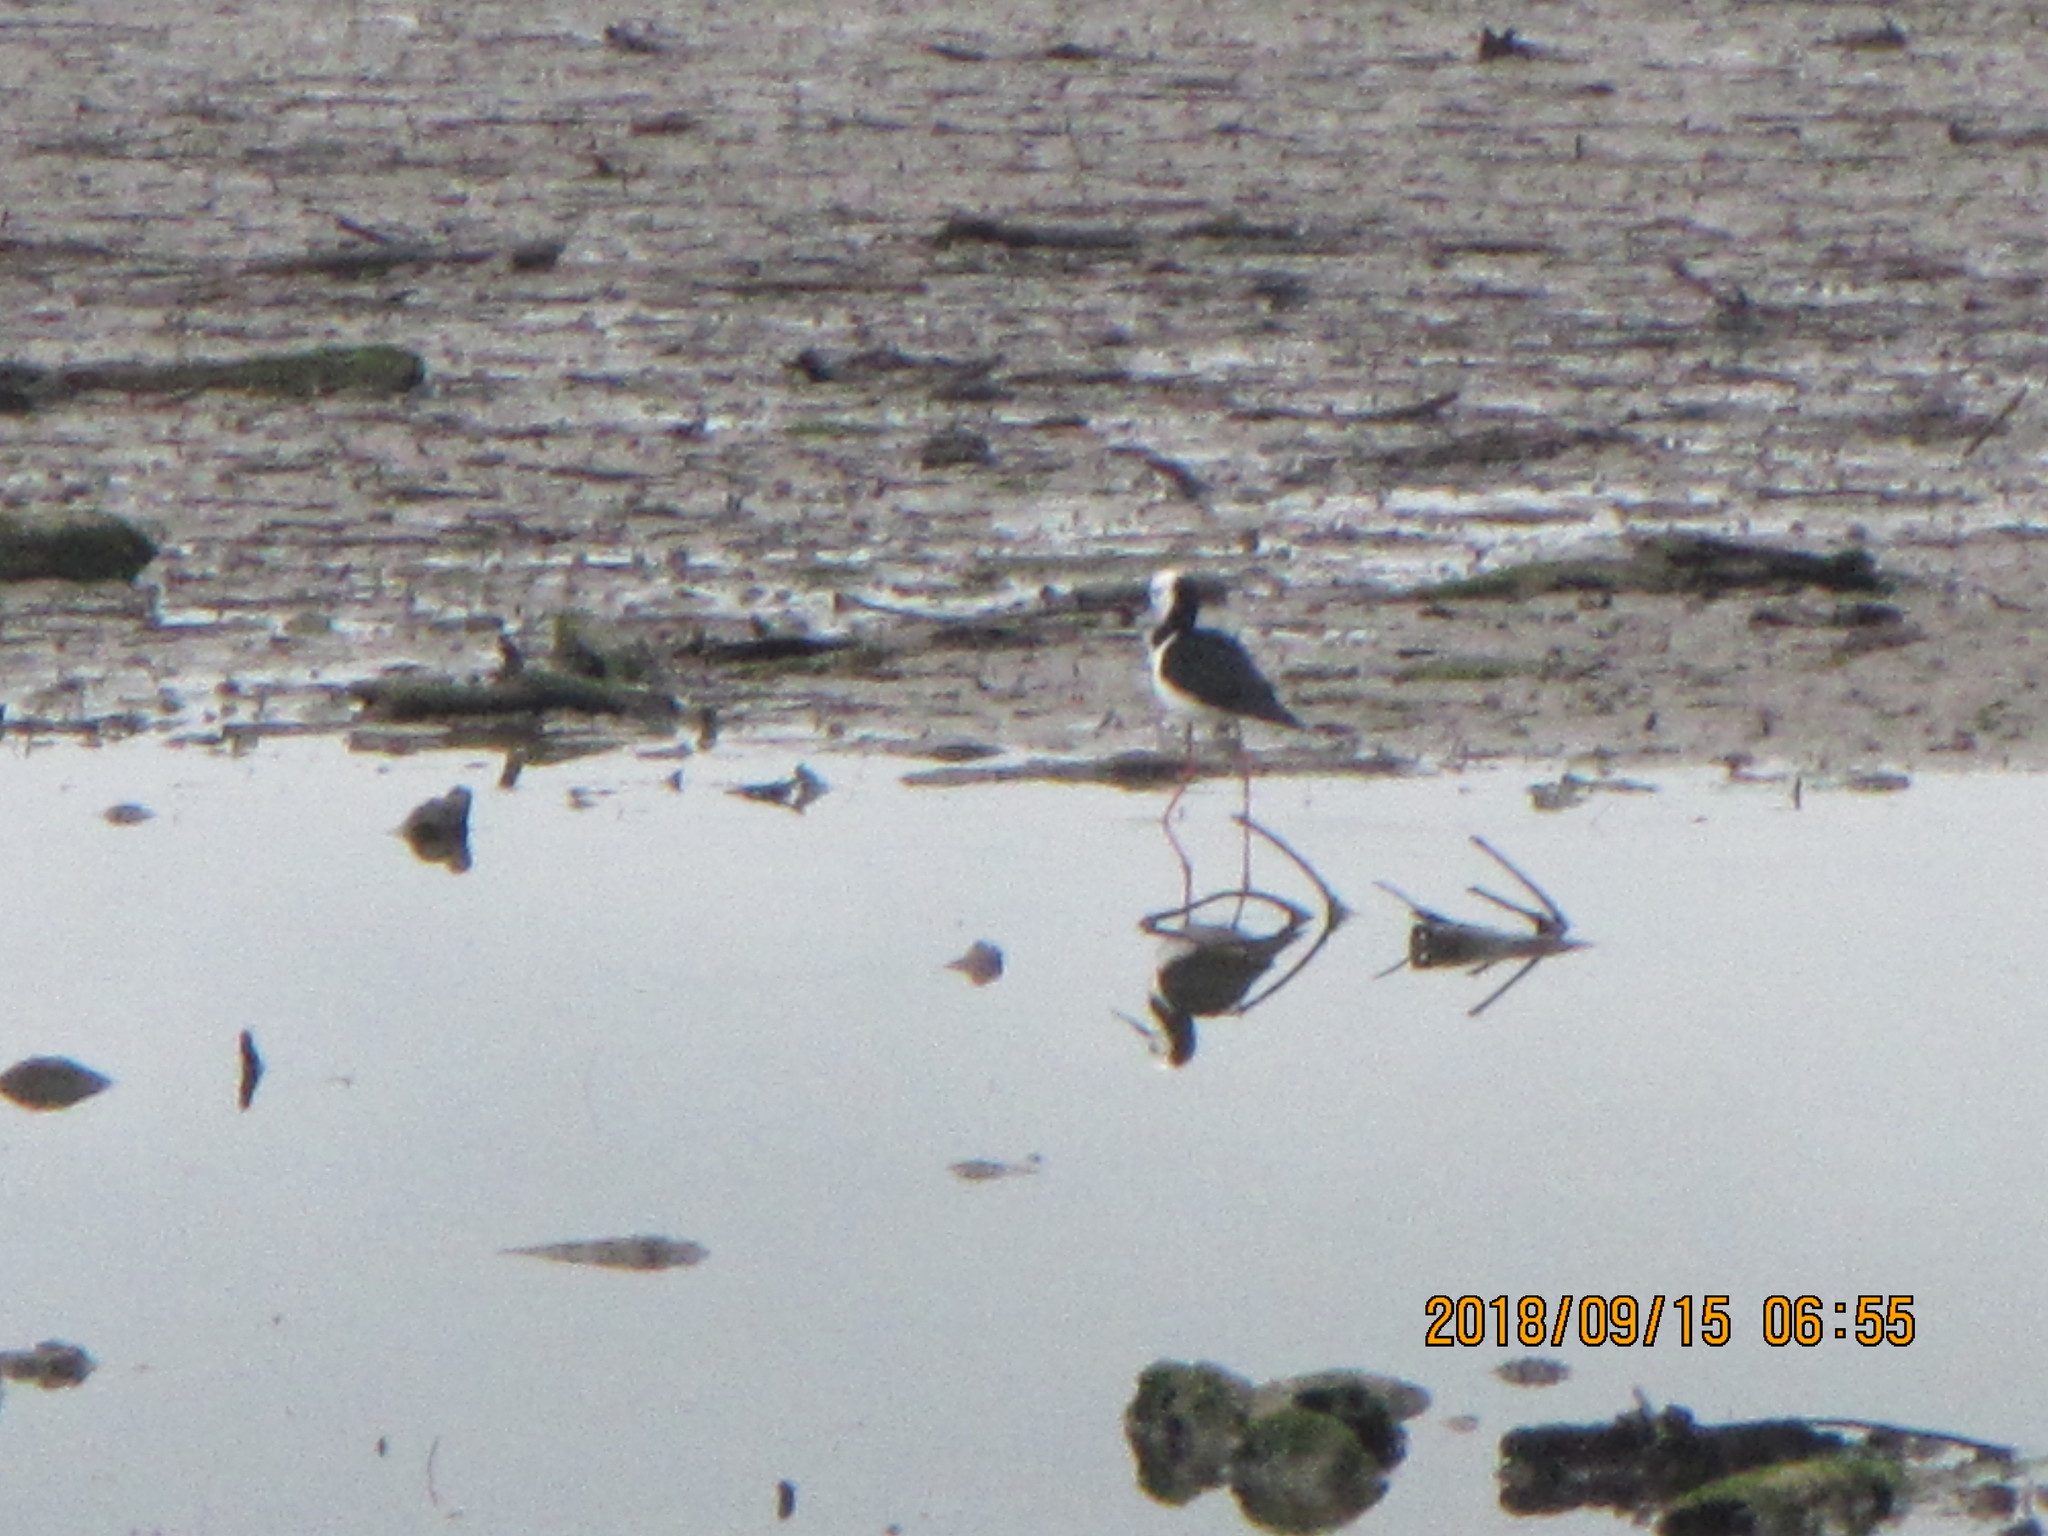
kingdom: Animalia
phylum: Chordata
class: Aves
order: Charadriiformes
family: Recurvirostridae
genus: Himantopus
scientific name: Himantopus leucocephalus
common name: White-headed stilt
